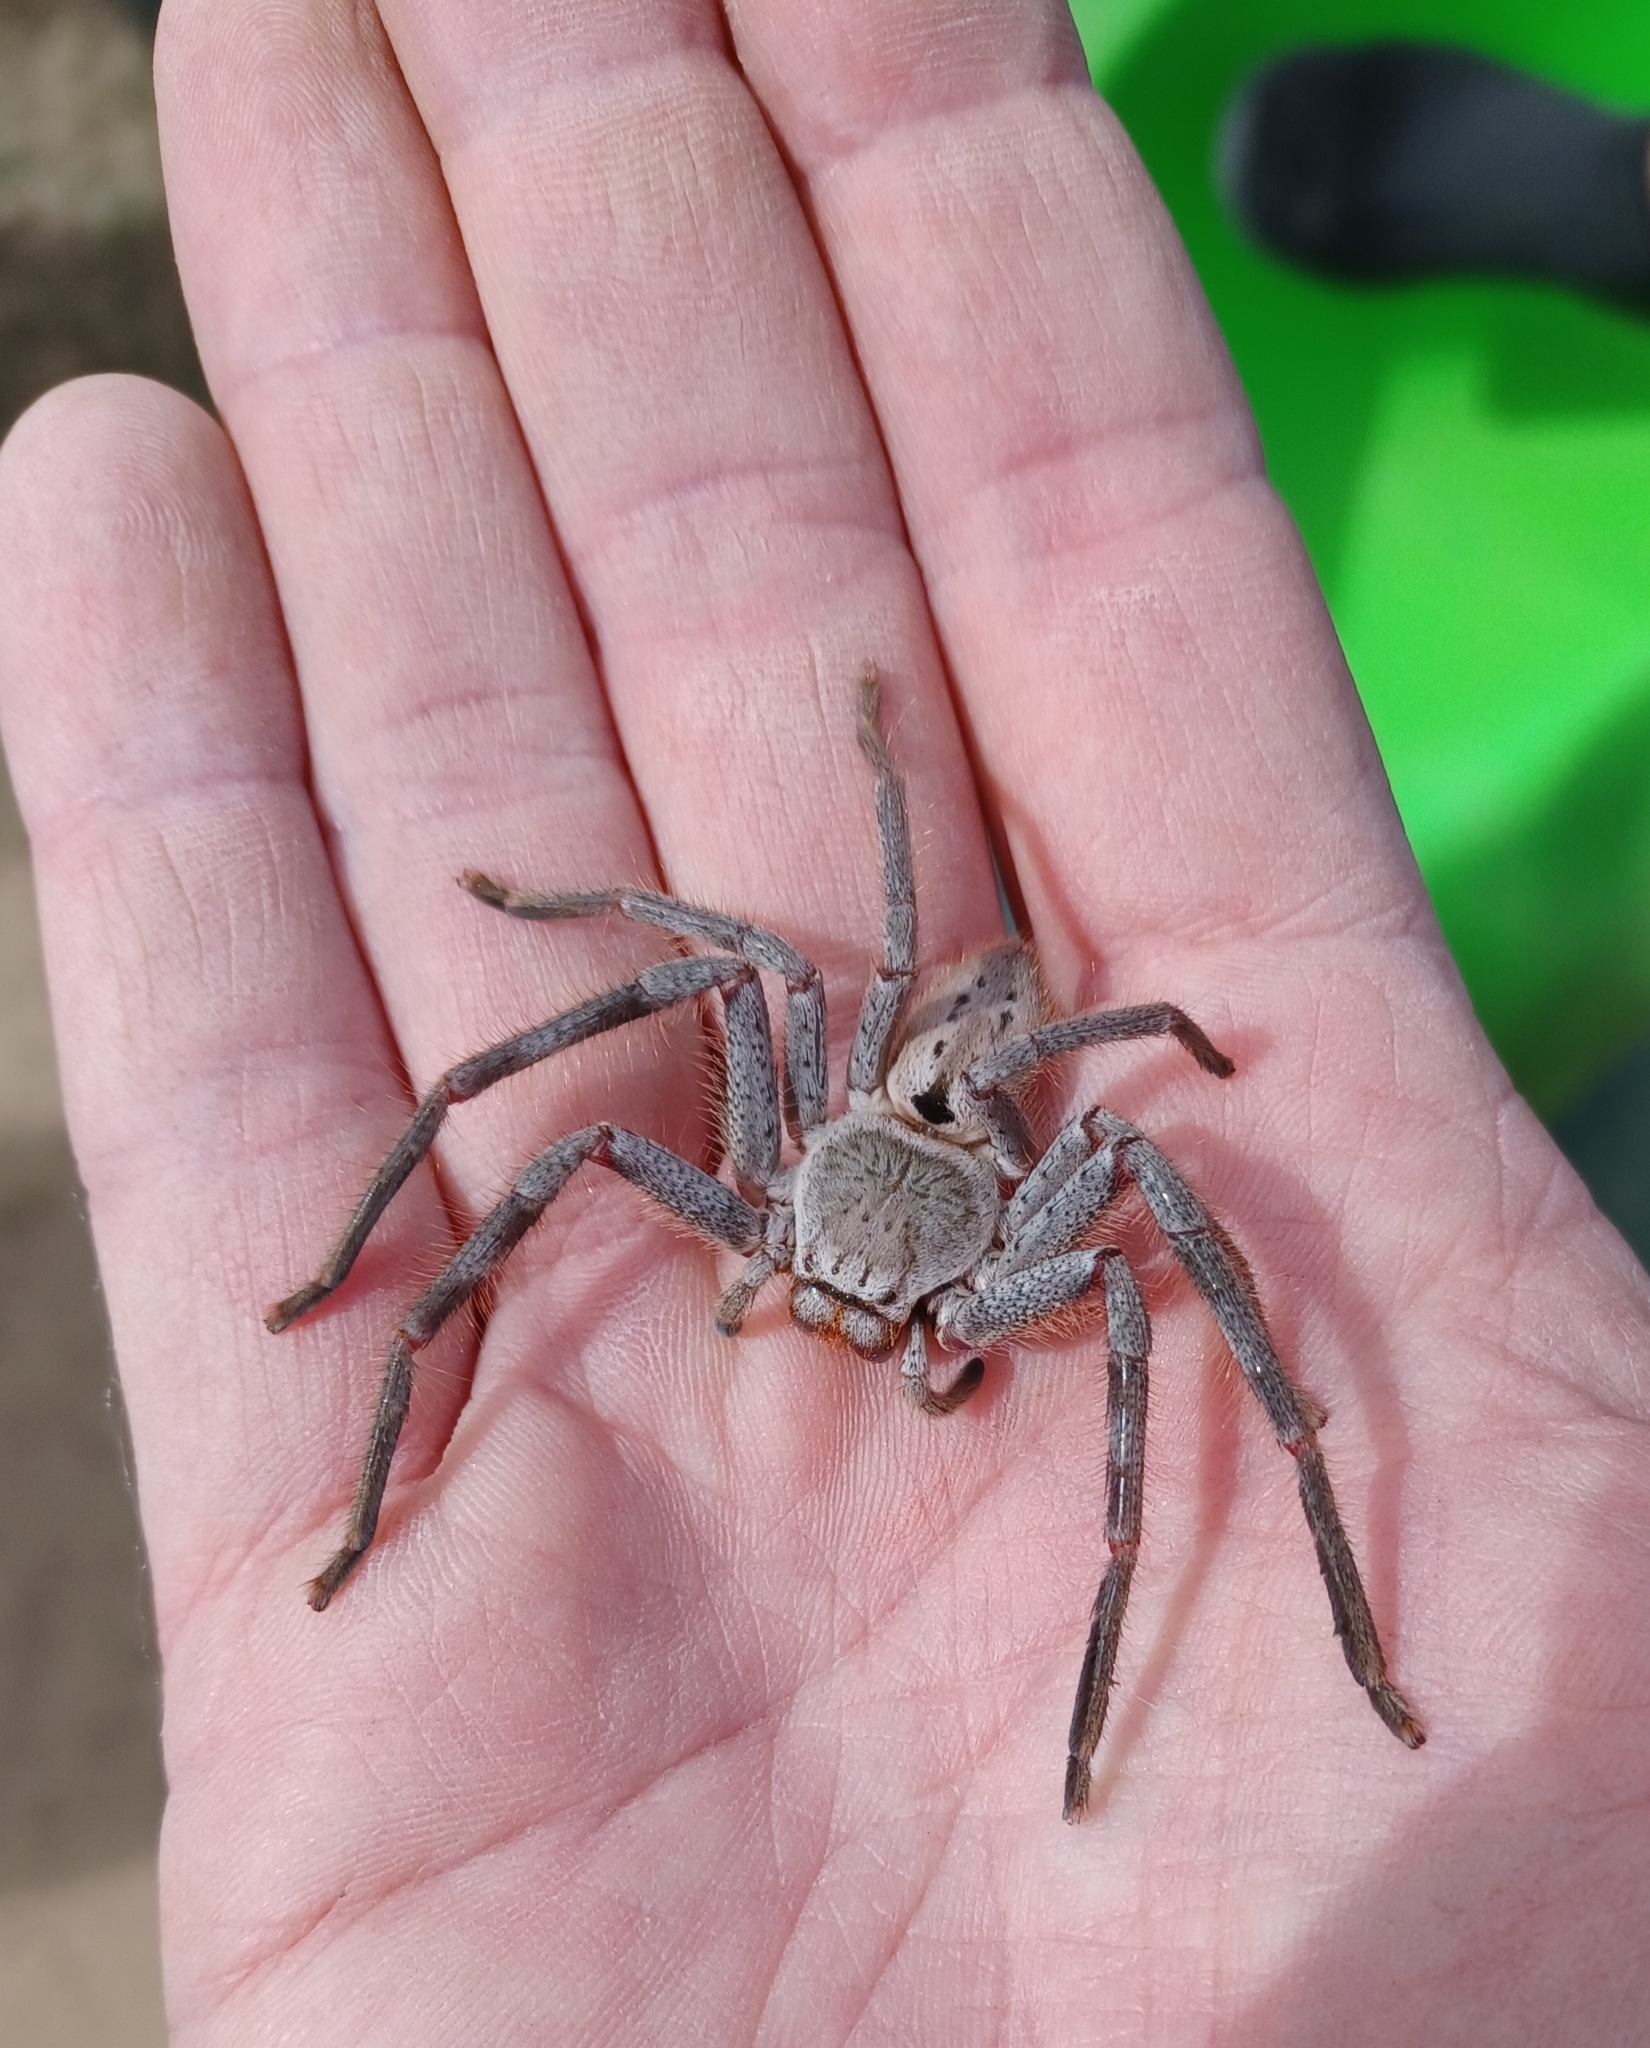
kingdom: Animalia
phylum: Arthropoda
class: Arachnida
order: Araneae
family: Sparassidae
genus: Isopeda
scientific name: Isopeda montana
